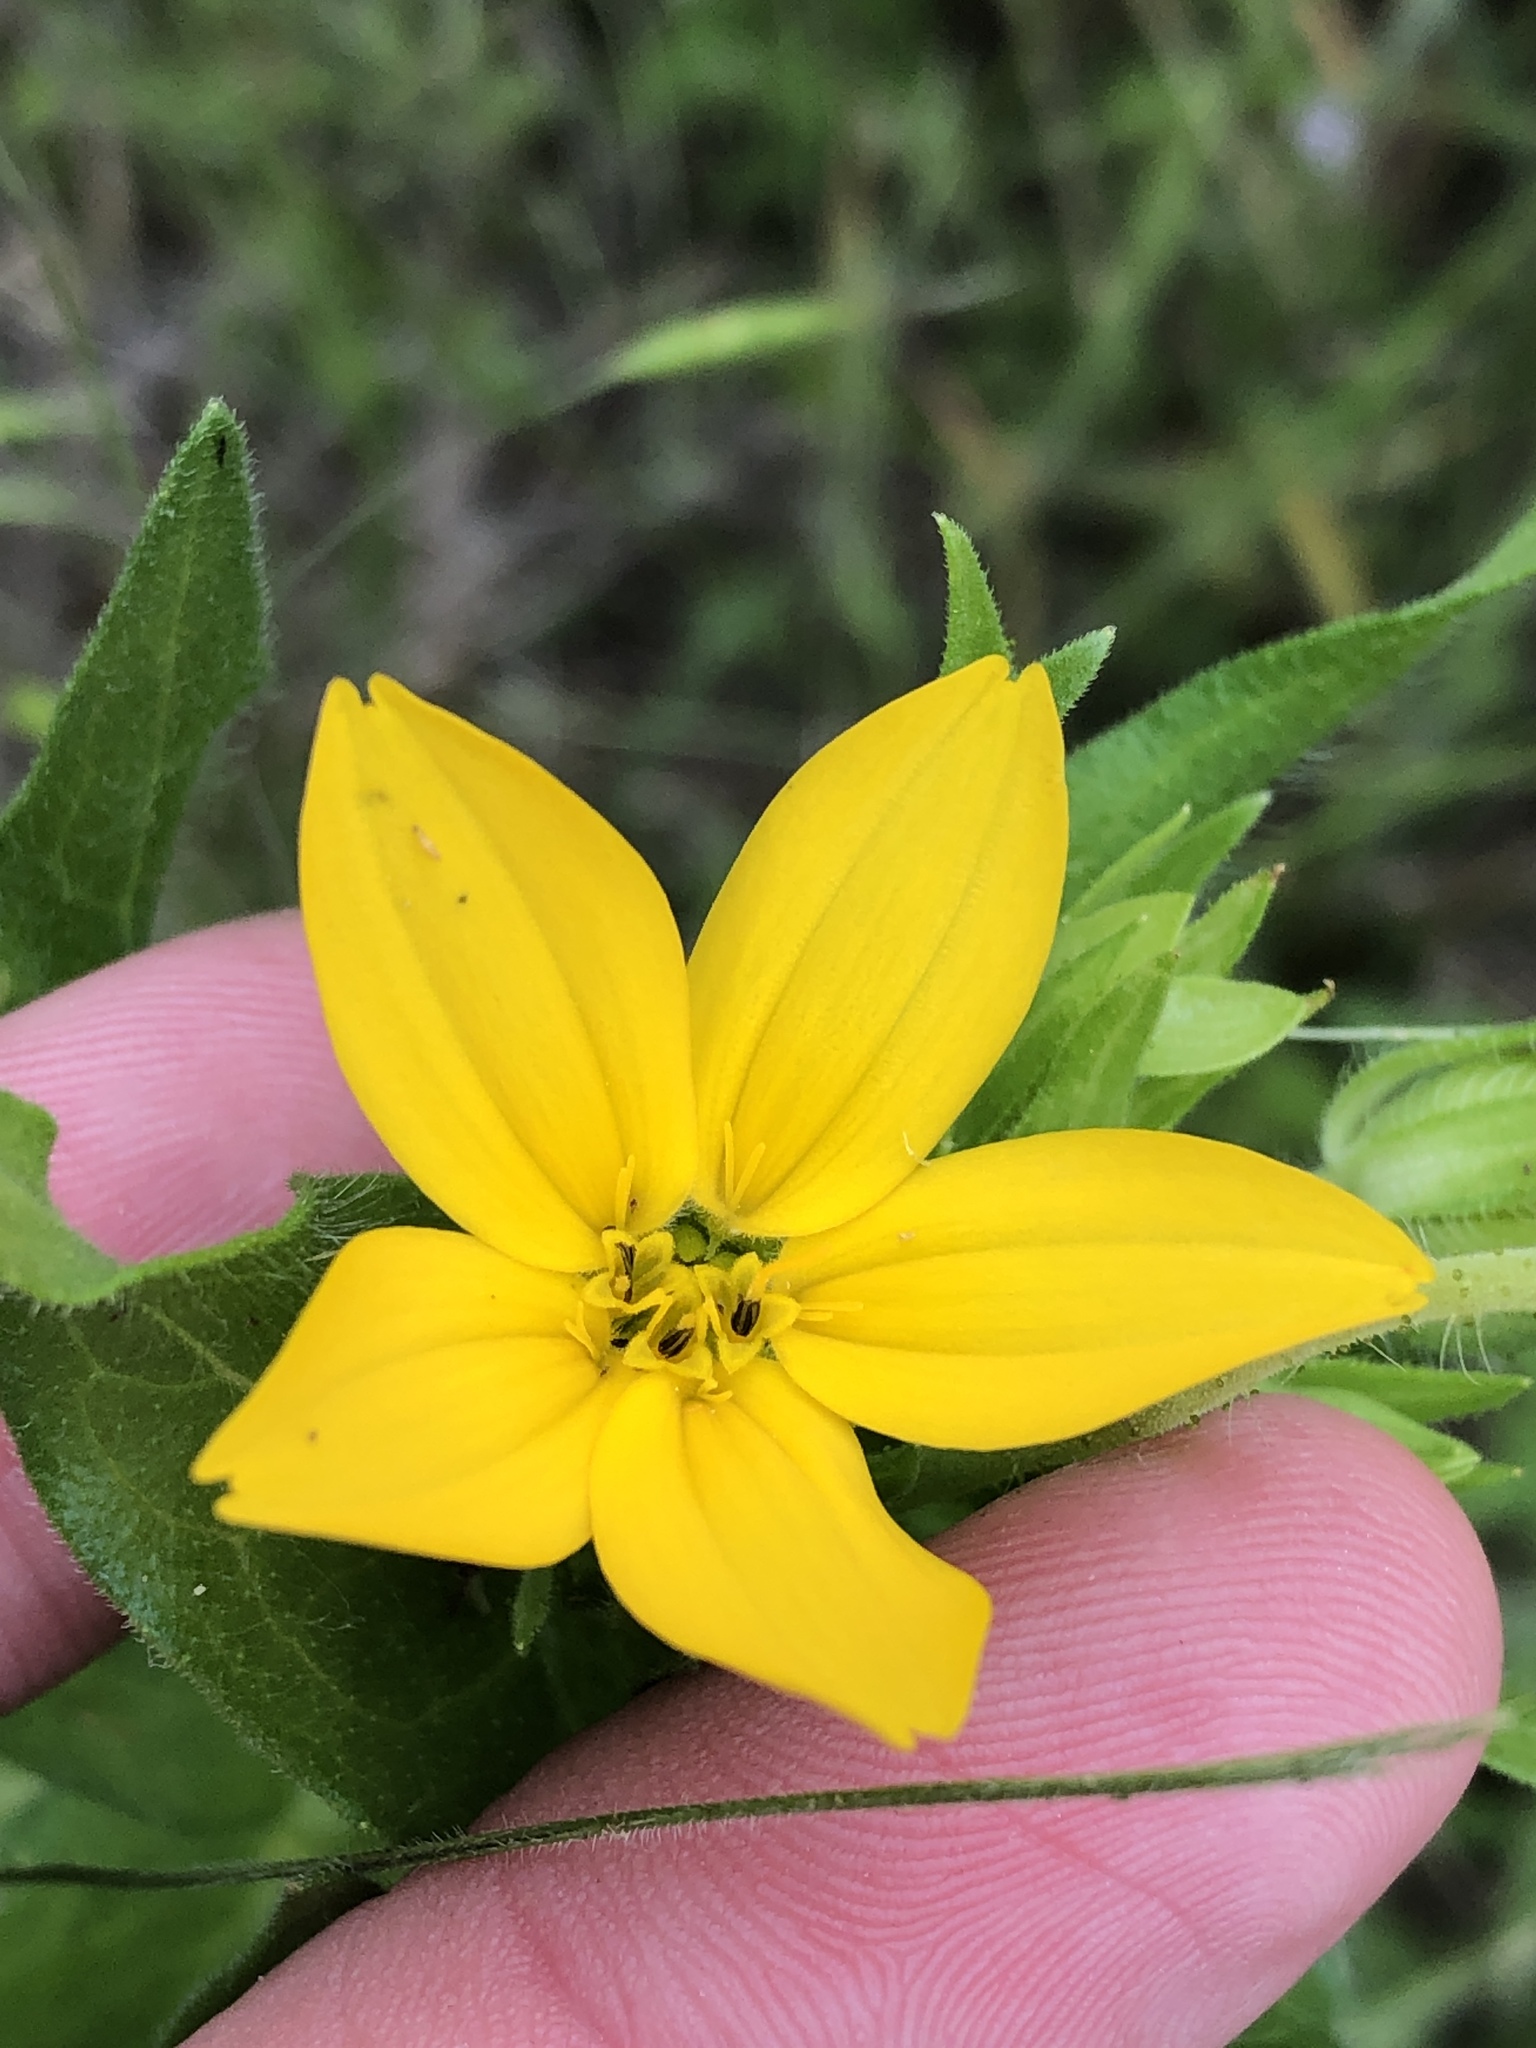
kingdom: Plantae
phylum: Tracheophyta
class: Magnoliopsida
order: Asterales
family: Asteraceae
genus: Lindheimera
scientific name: Lindheimera texana
